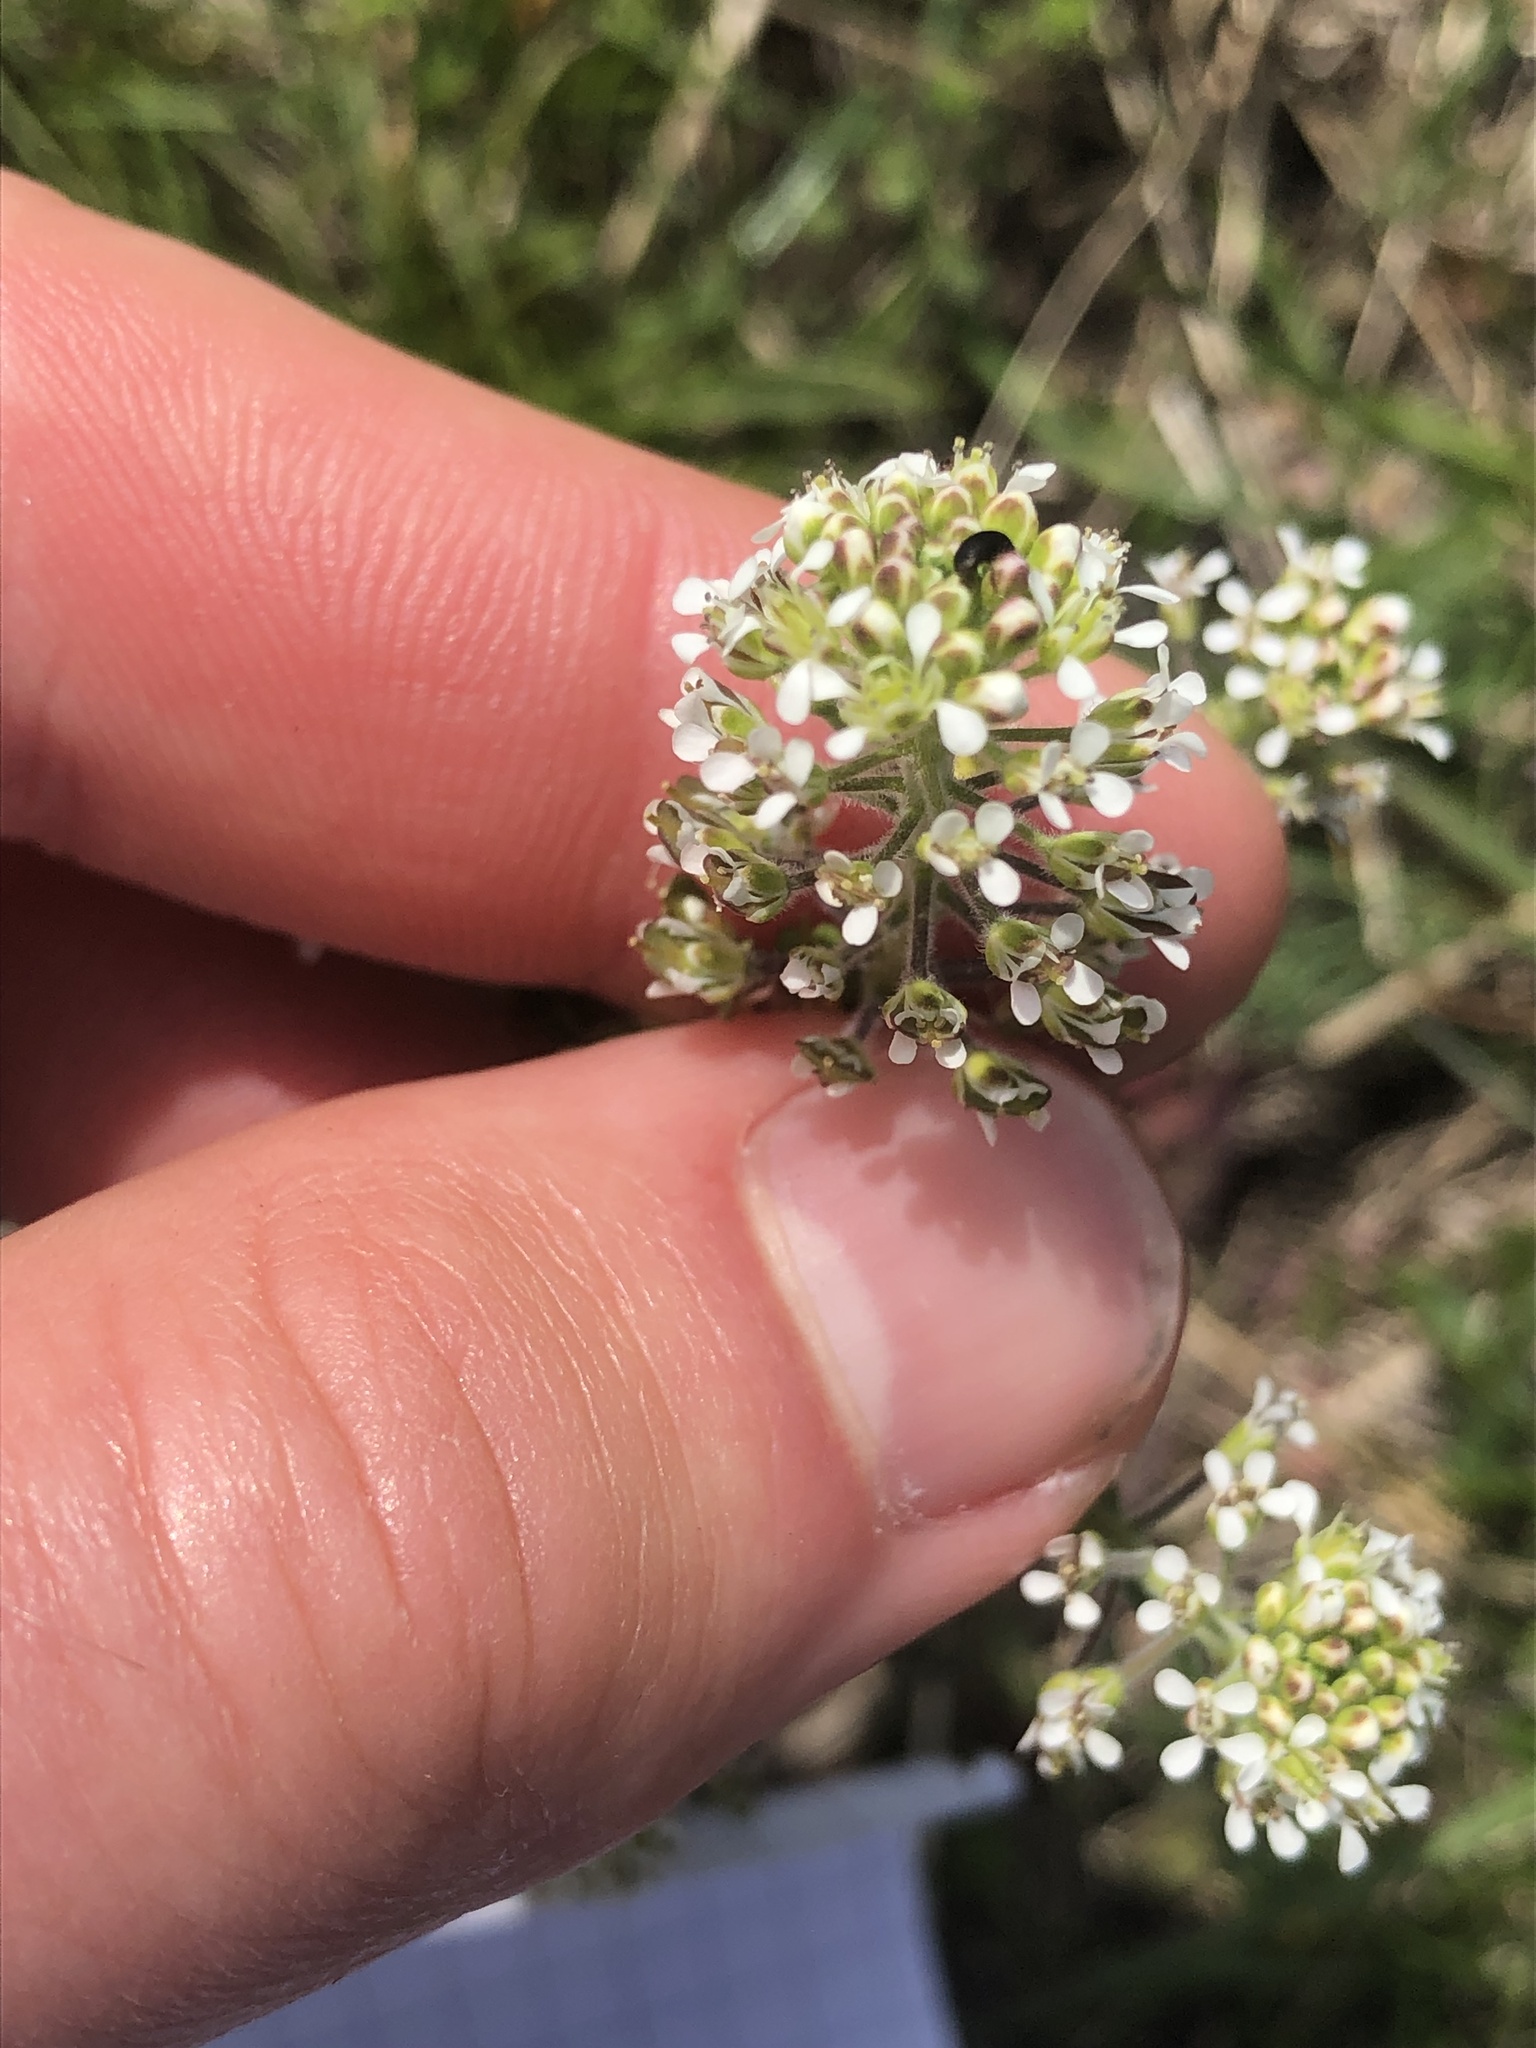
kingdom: Plantae
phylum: Tracheophyta
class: Magnoliopsida
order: Brassicales
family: Brassicaceae
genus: Lepidium
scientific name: Lepidium campestre
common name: Field pepperwort
